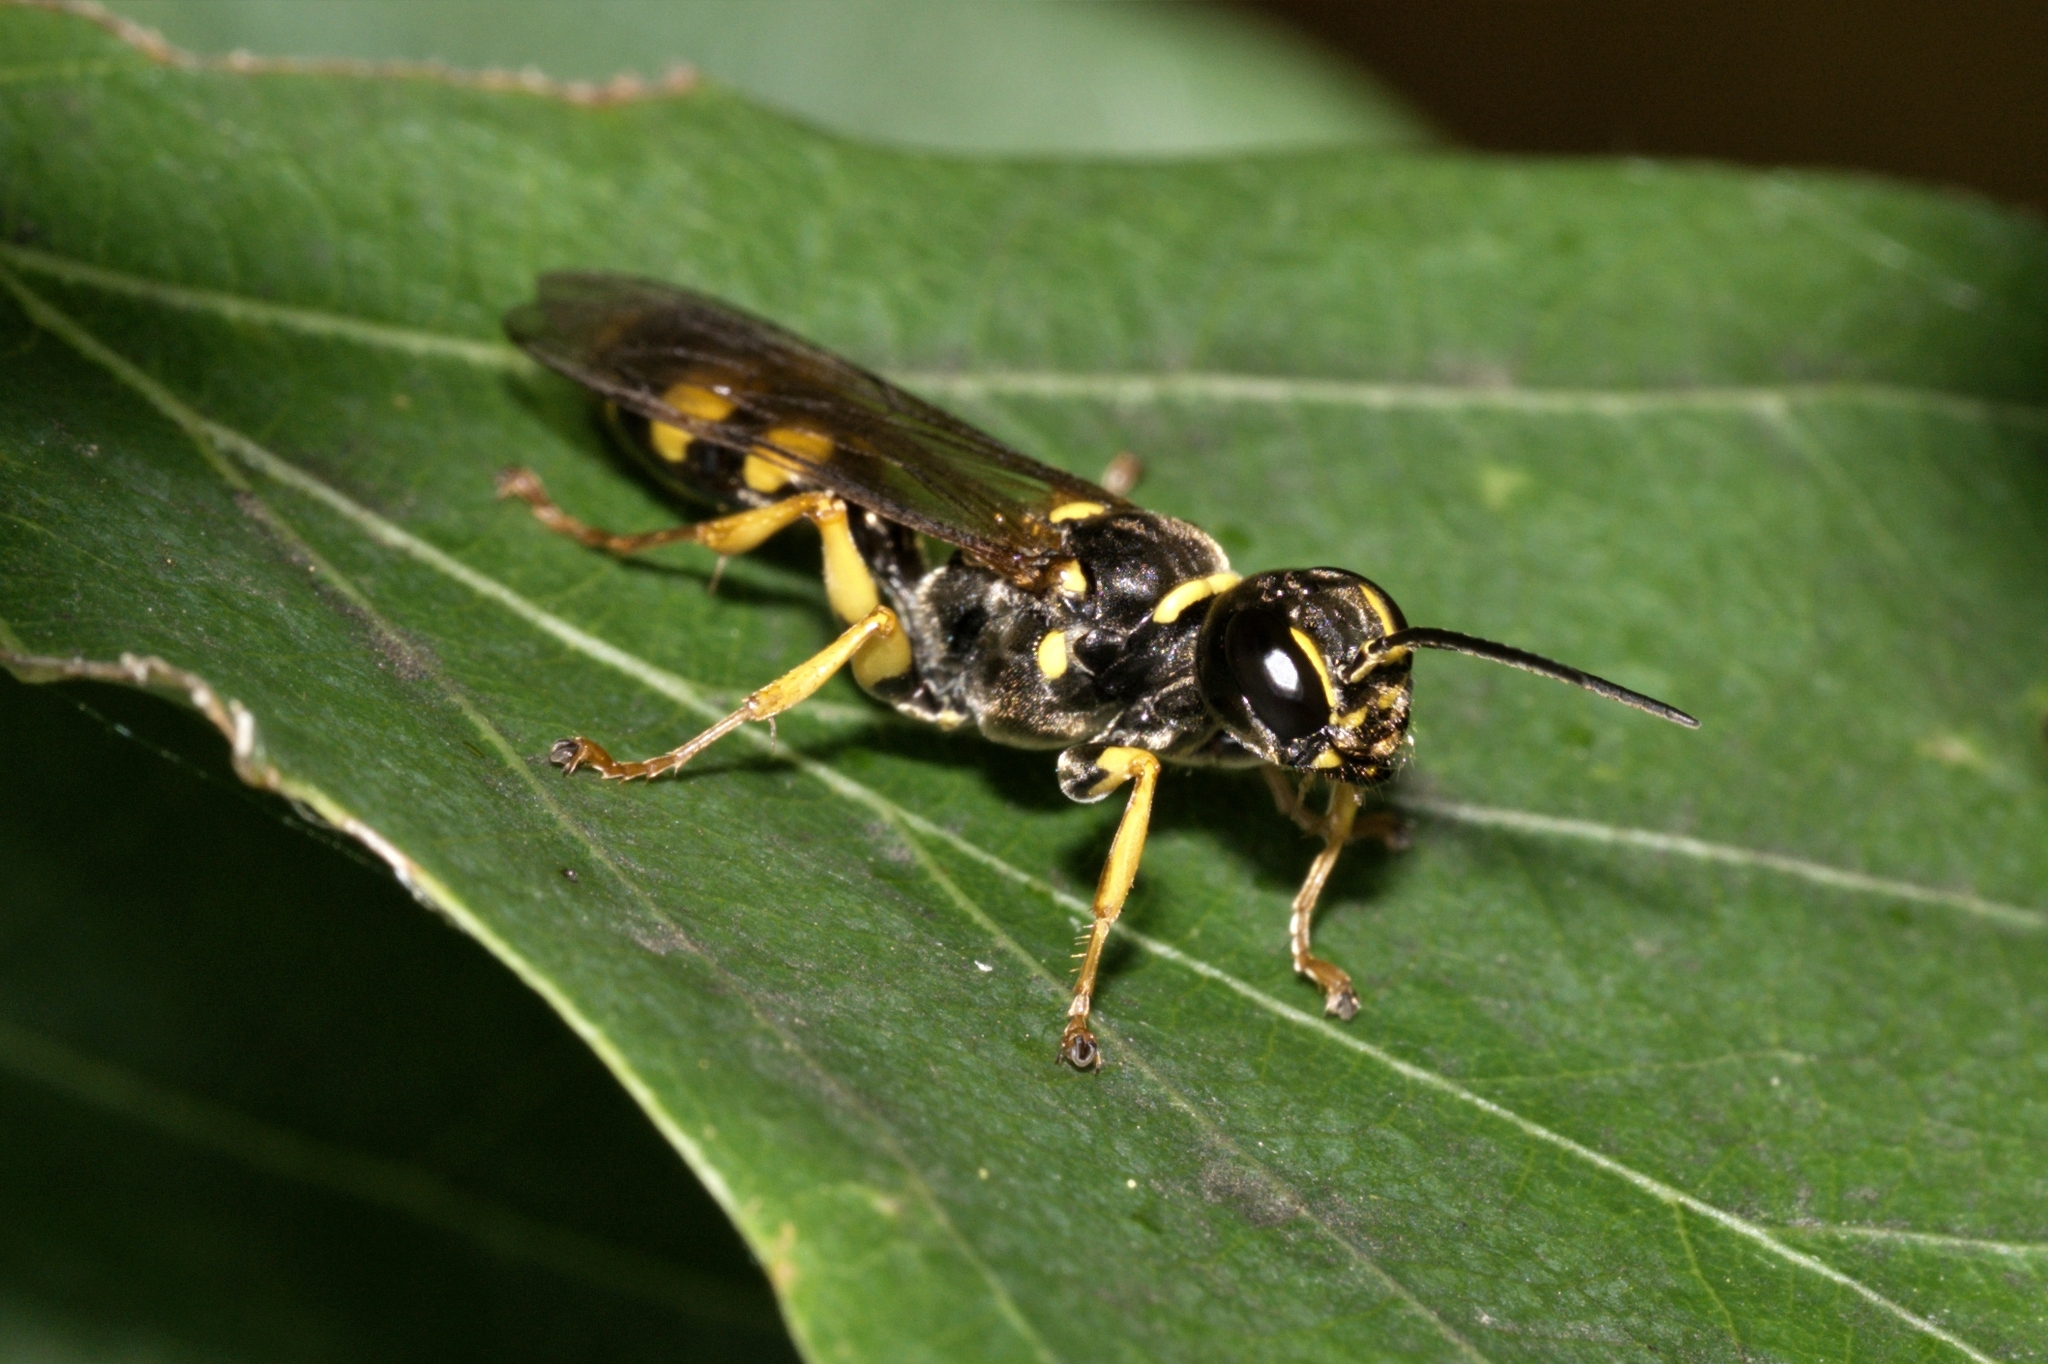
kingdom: Animalia
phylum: Arthropoda
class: Insecta
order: Hymenoptera
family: Crabronidae
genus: Mellinus
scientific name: Mellinus arvensis
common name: Field digger wasp
